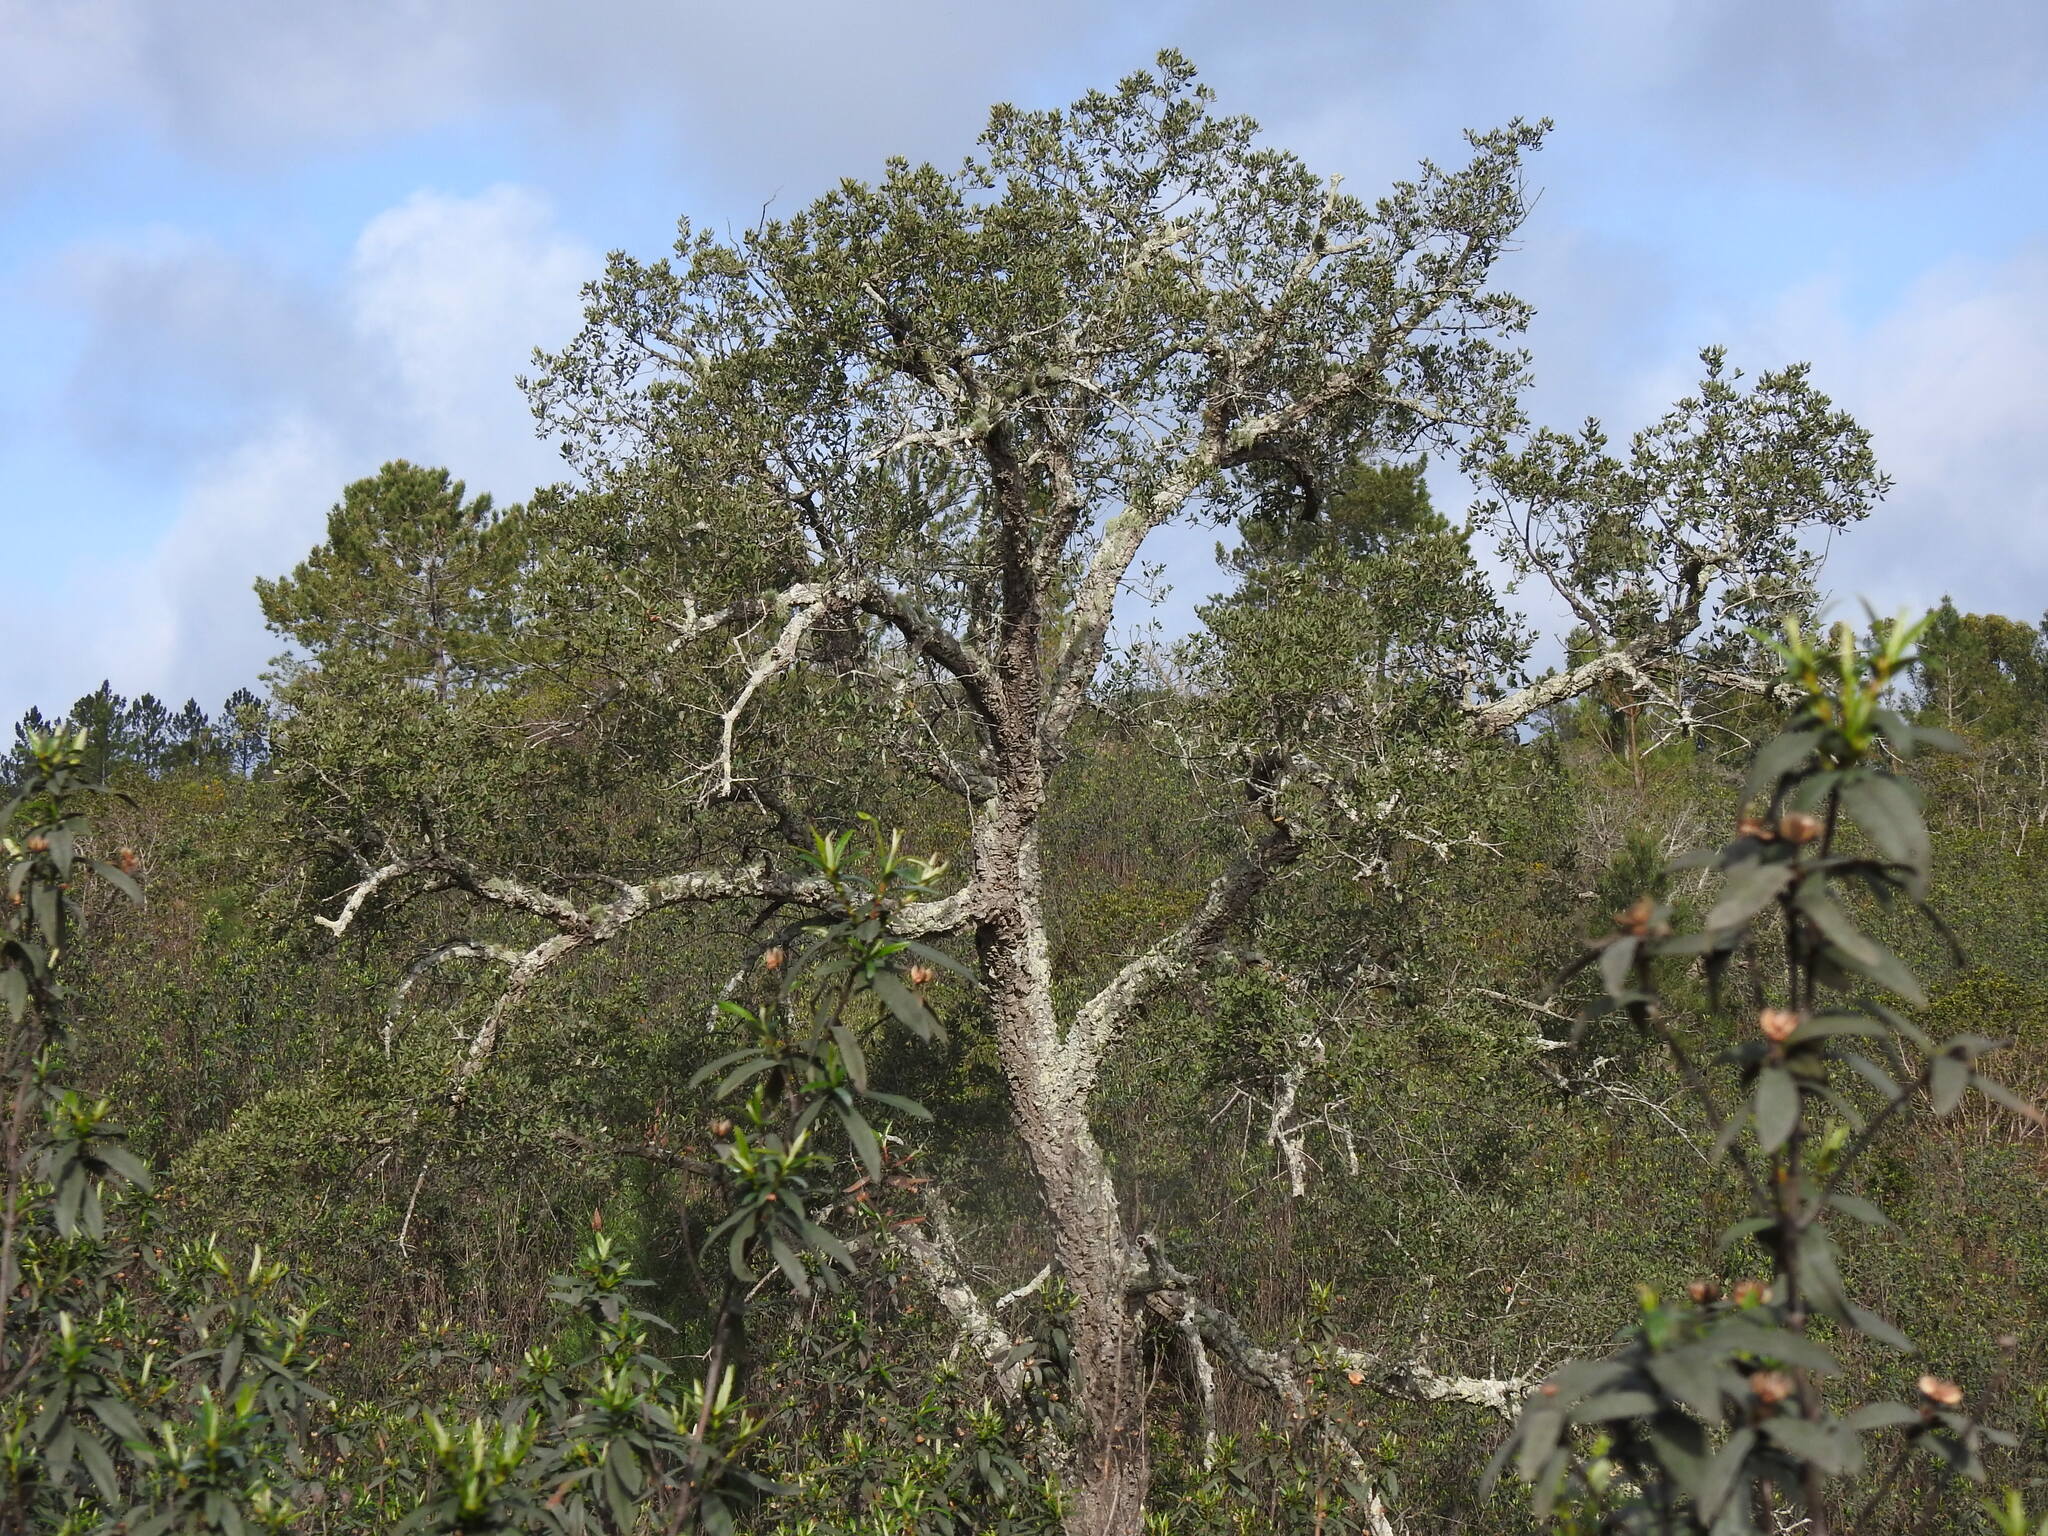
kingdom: Plantae
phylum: Tracheophyta
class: Magnoliopsida
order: Fagales
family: Fagaceae
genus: Quercus
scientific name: Quercus suber
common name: Cork oak
